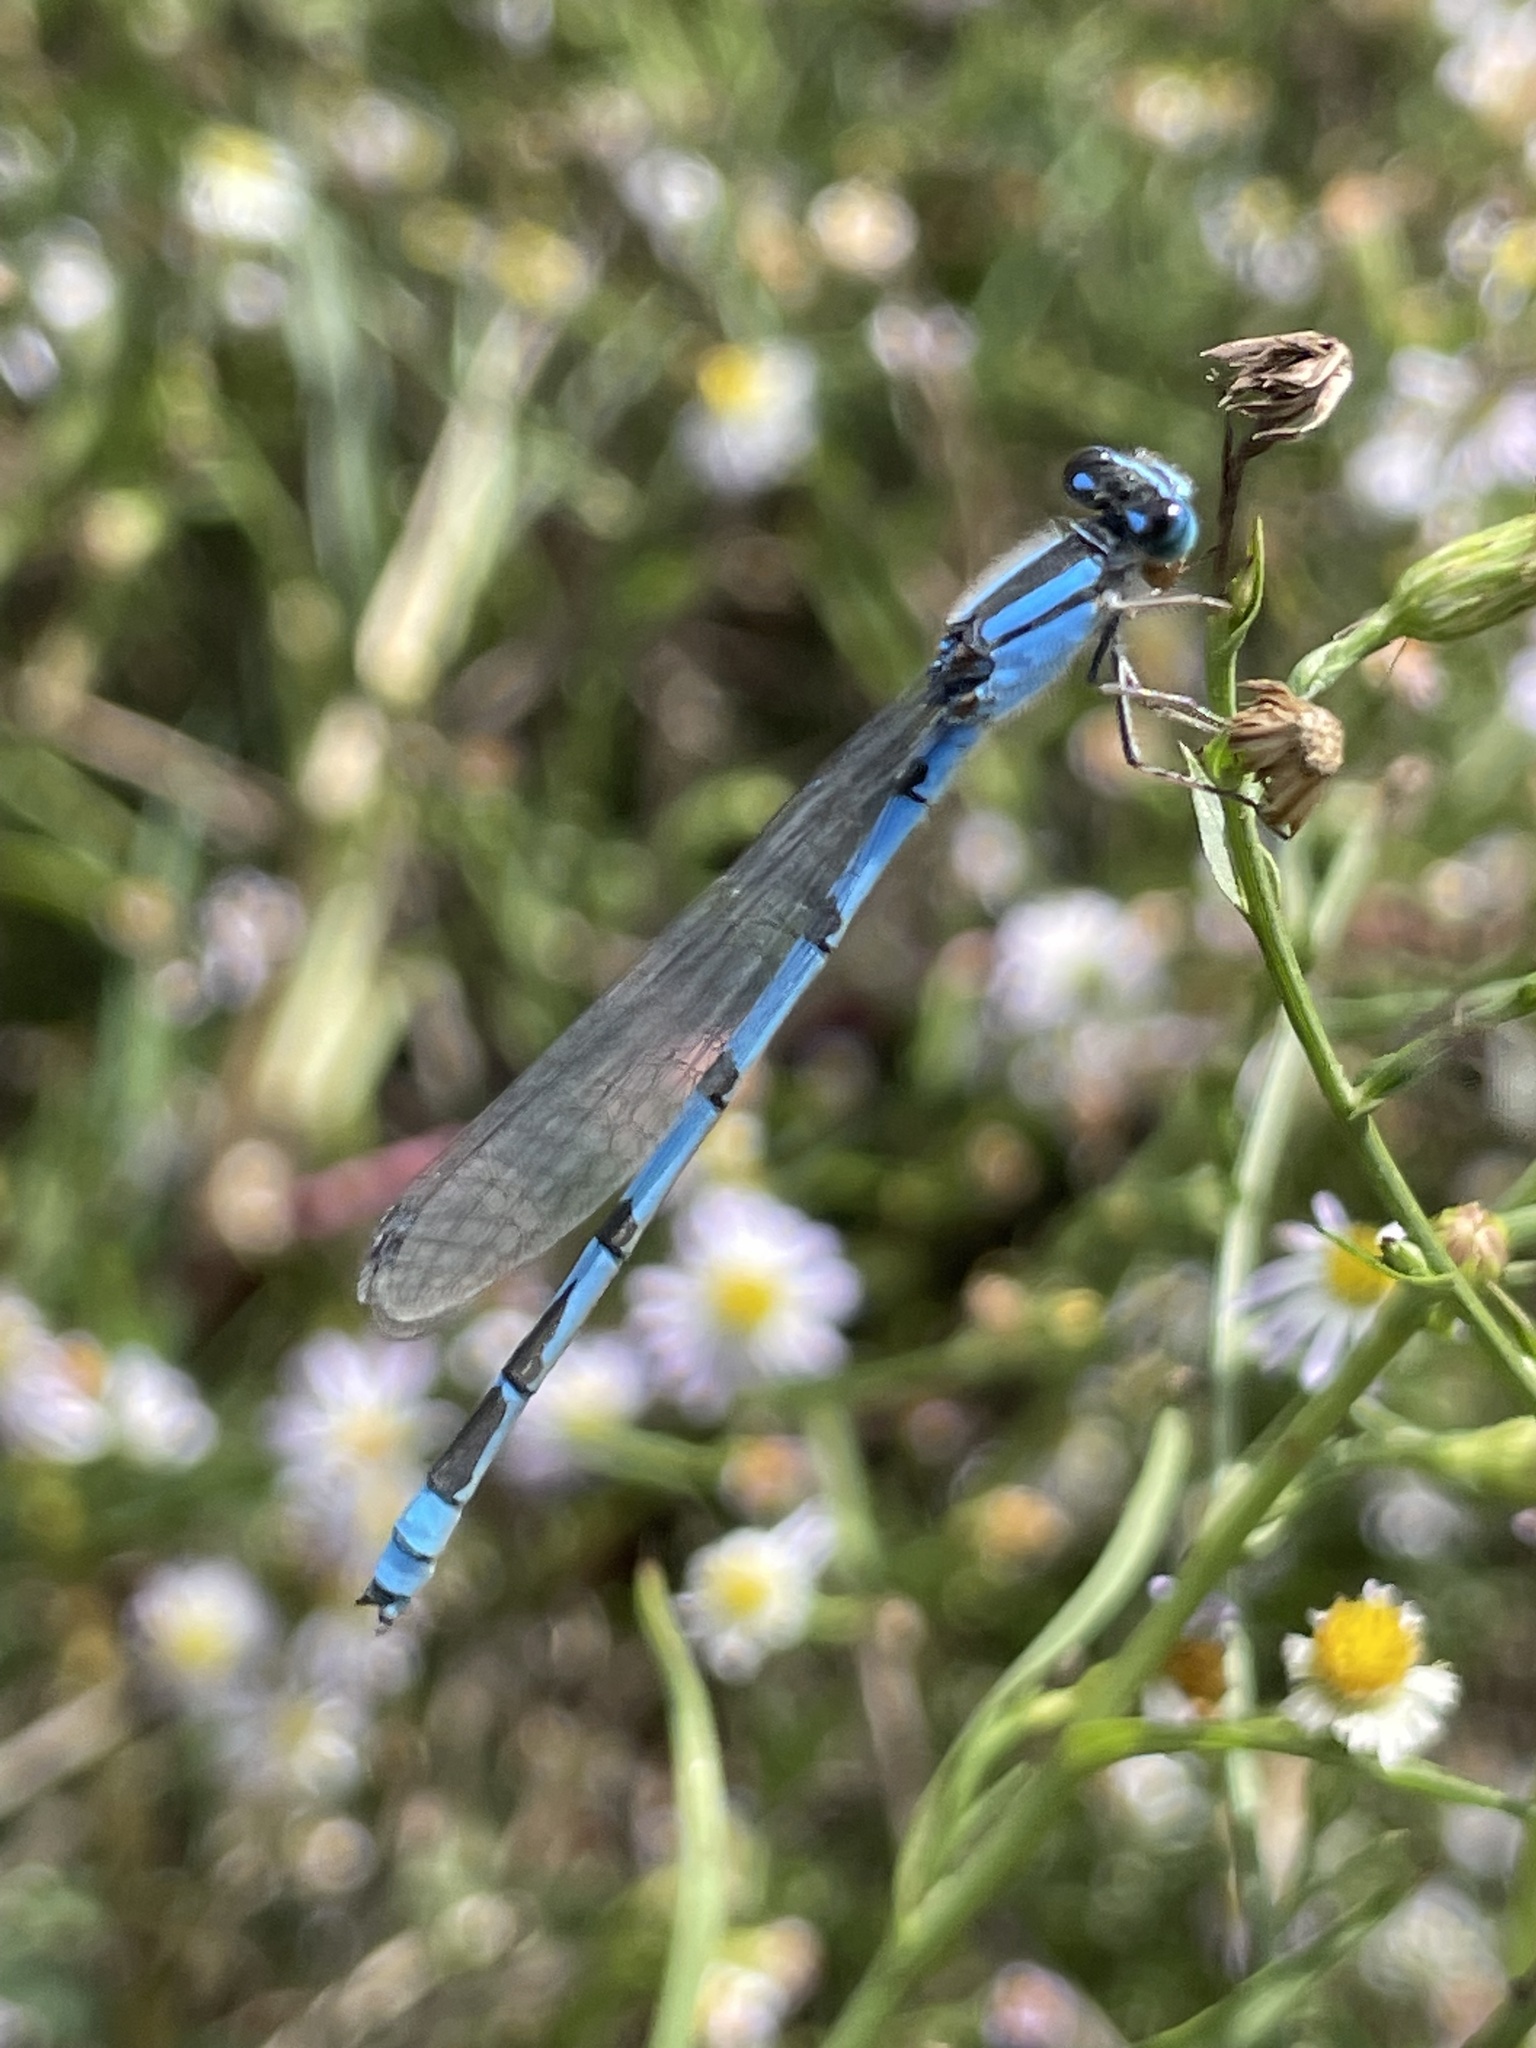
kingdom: Animalia
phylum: Arthropoda
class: Insecta
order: Odonata
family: Coenagrionidae
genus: Enallagma
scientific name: Enallagma civile
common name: Damselfly
